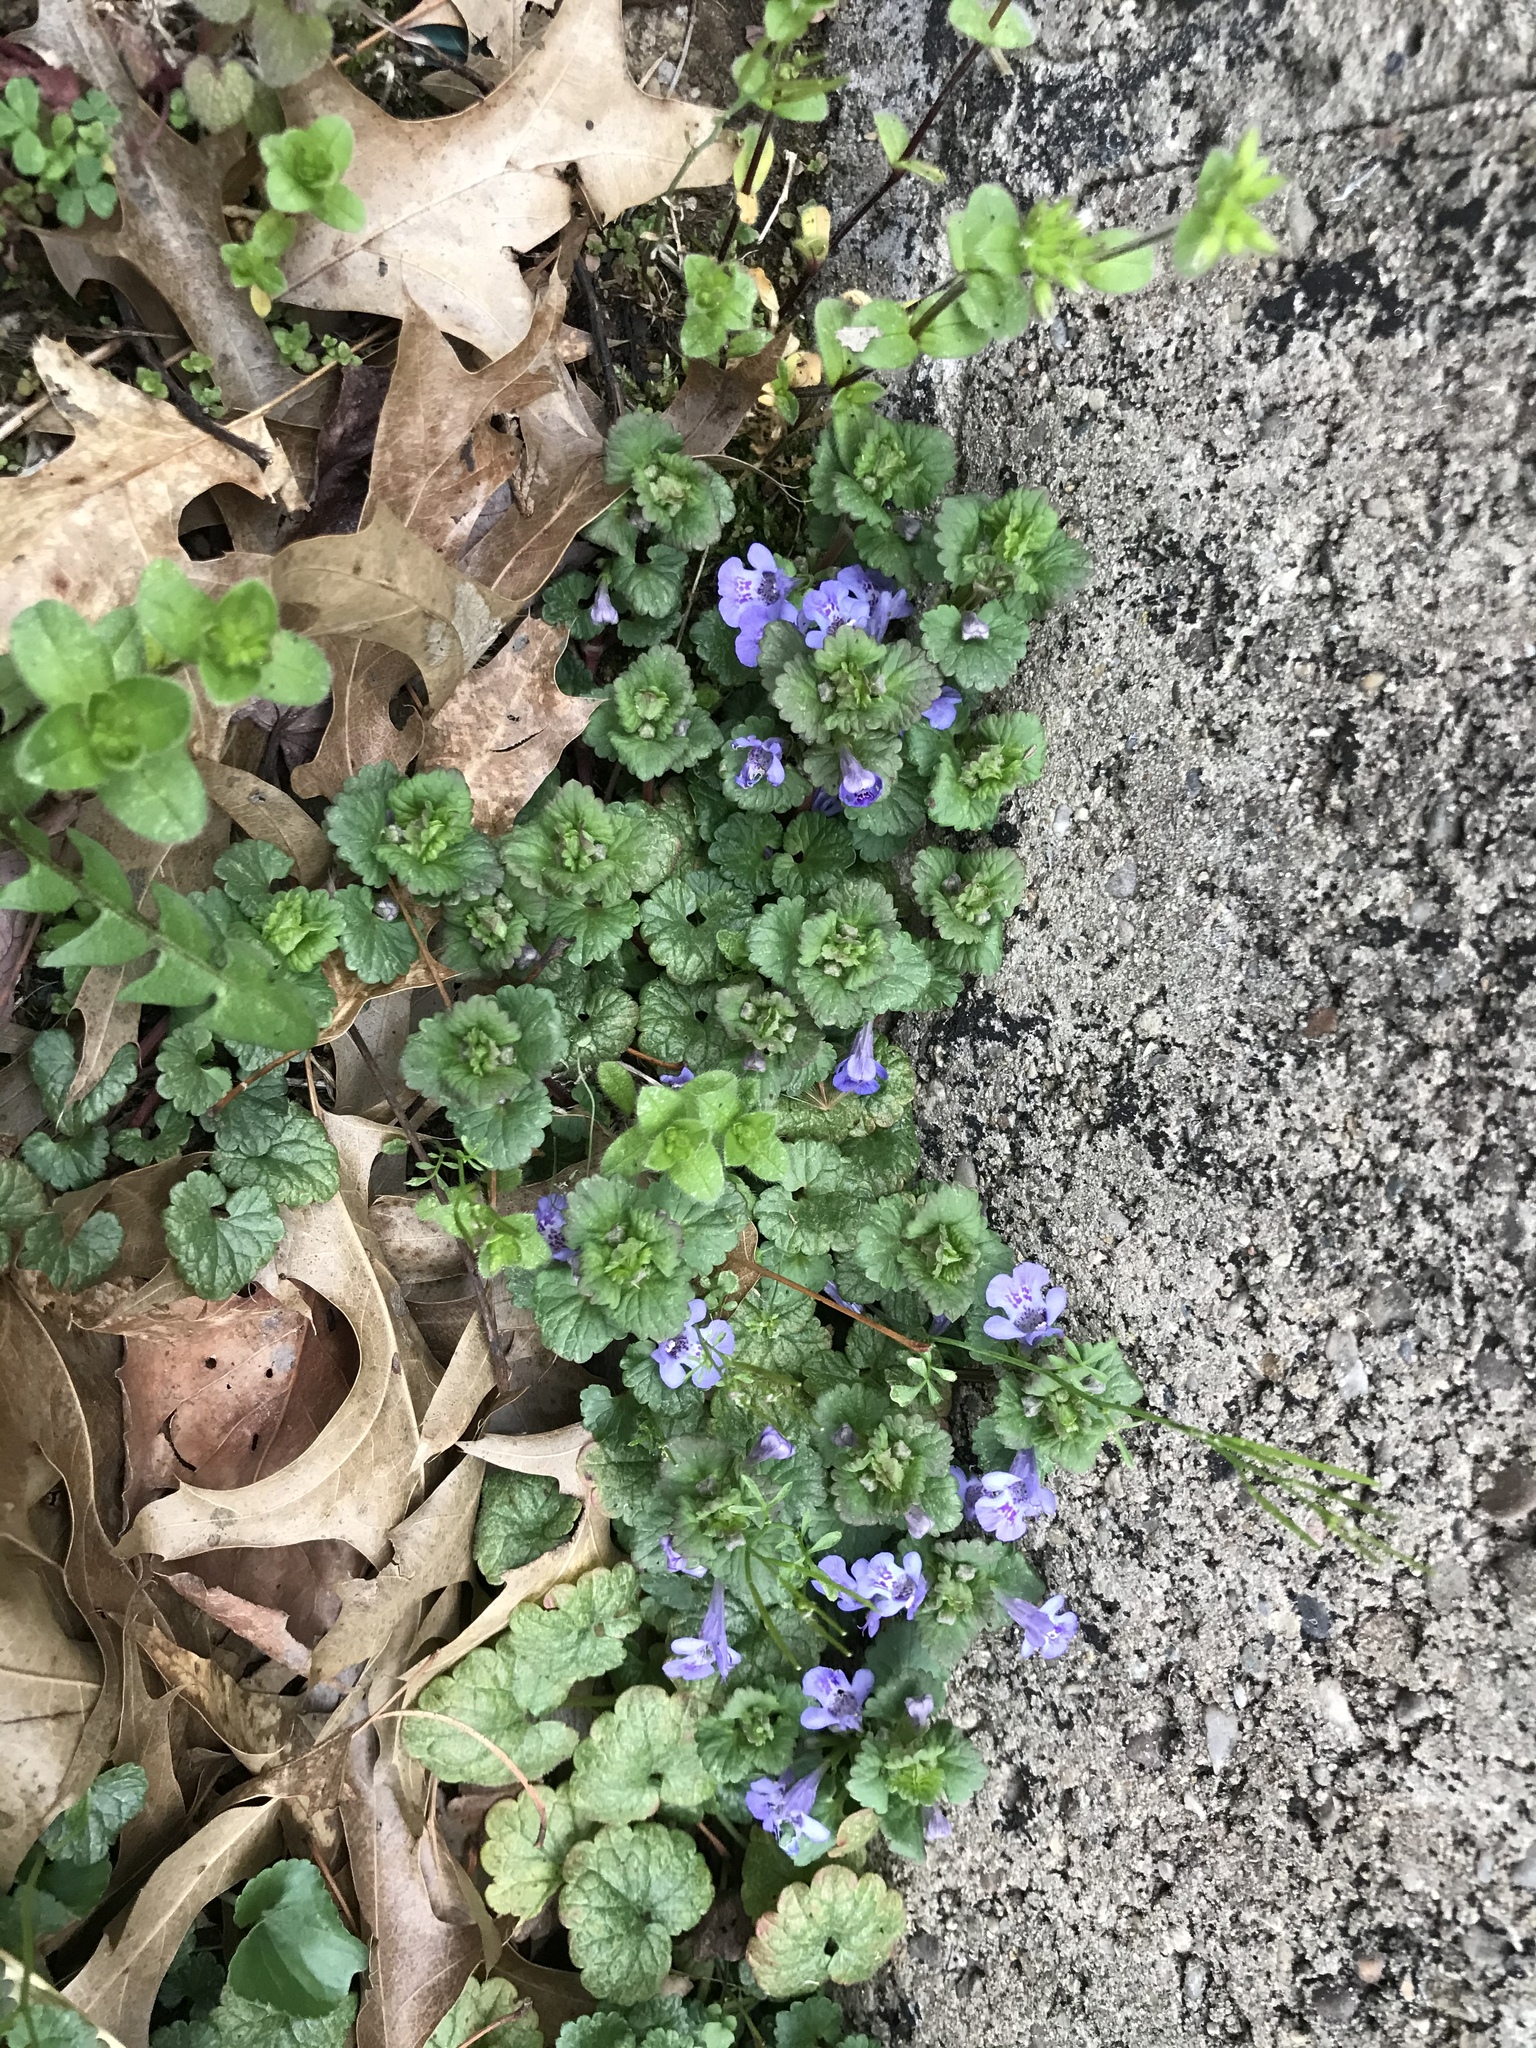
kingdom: Plantae
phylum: Tracheophyta
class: Magnoliopsida
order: Lamiales
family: Lamiaceae
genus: Glechoma
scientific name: Glechoma hederacea
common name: Ground ivy
